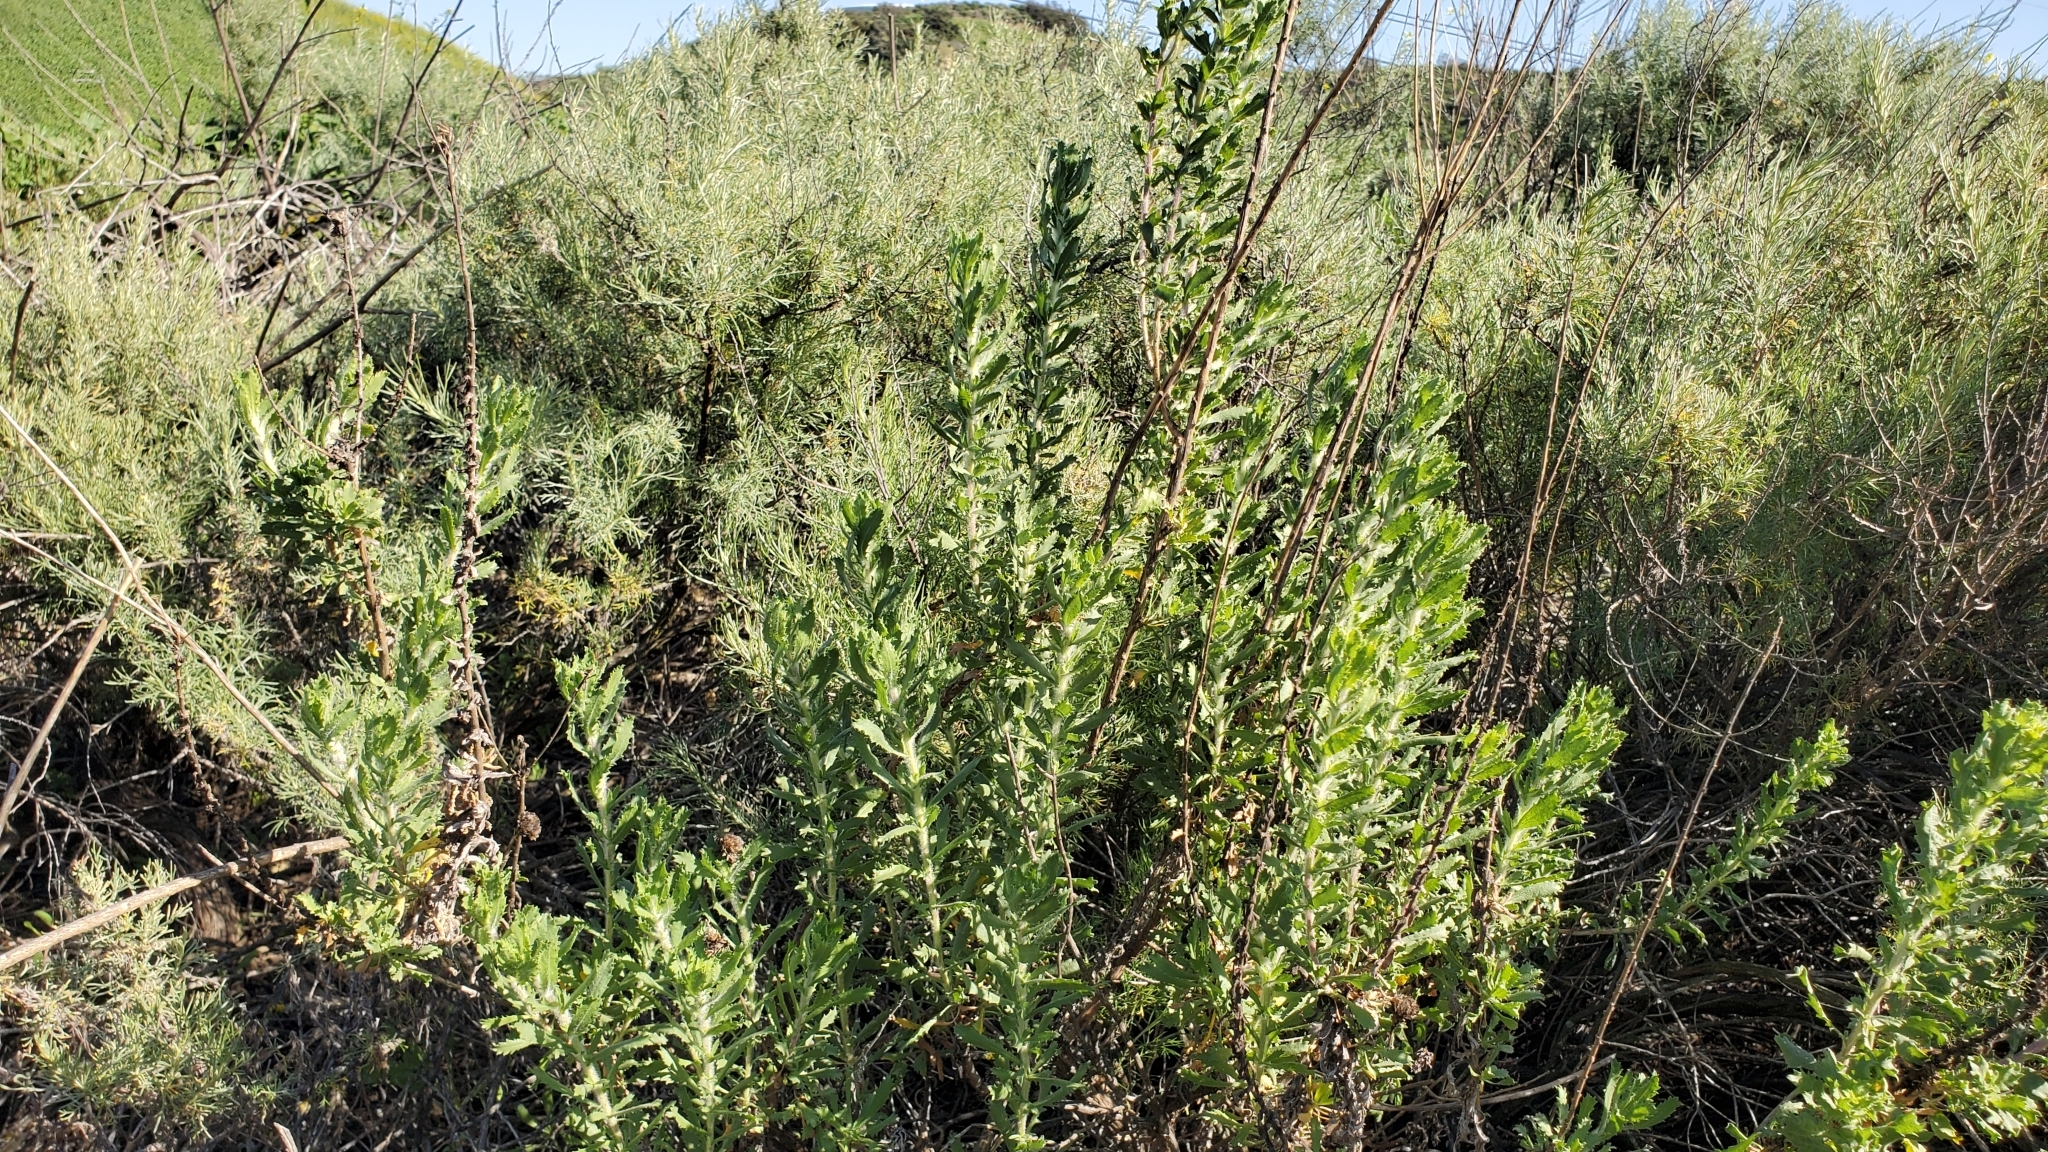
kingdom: Plantae
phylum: Tracheophyta
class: Magnoliopsida
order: Asterales
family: Asteraceae
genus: Isocoma
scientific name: Isocoma menziesii
